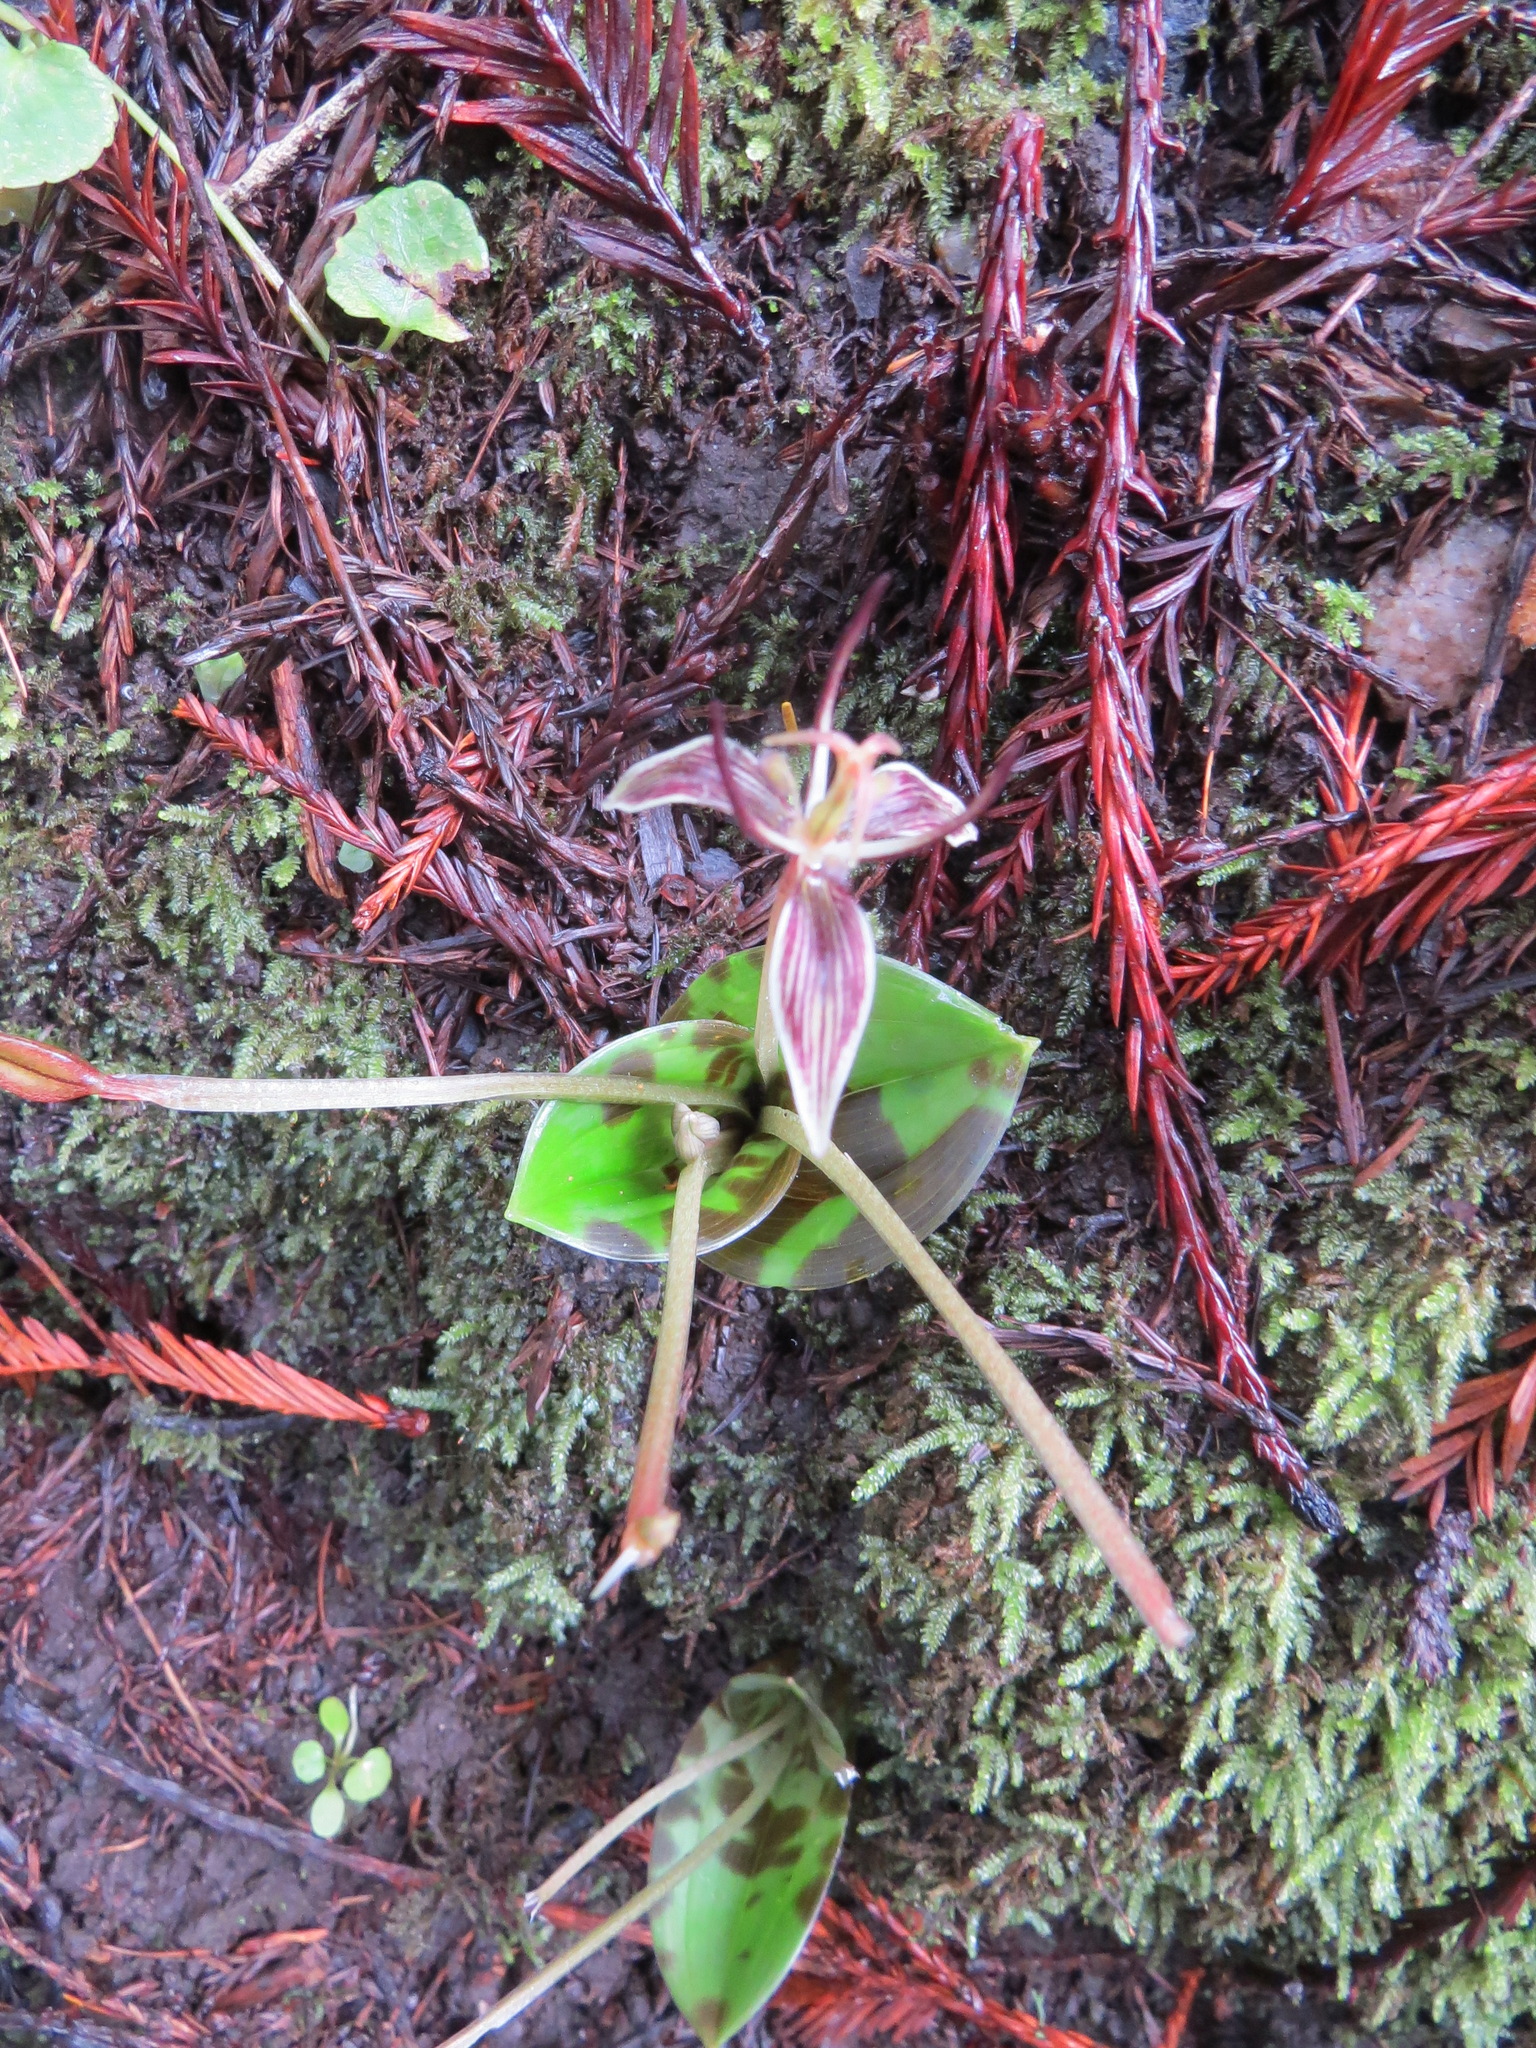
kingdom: Plantae
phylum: Tracheophyta
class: Liliopsida
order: Liliales
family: Liliaceae
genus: Scoliopus
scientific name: Scoliopus bigelovii
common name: Foetid adder's-tongue
